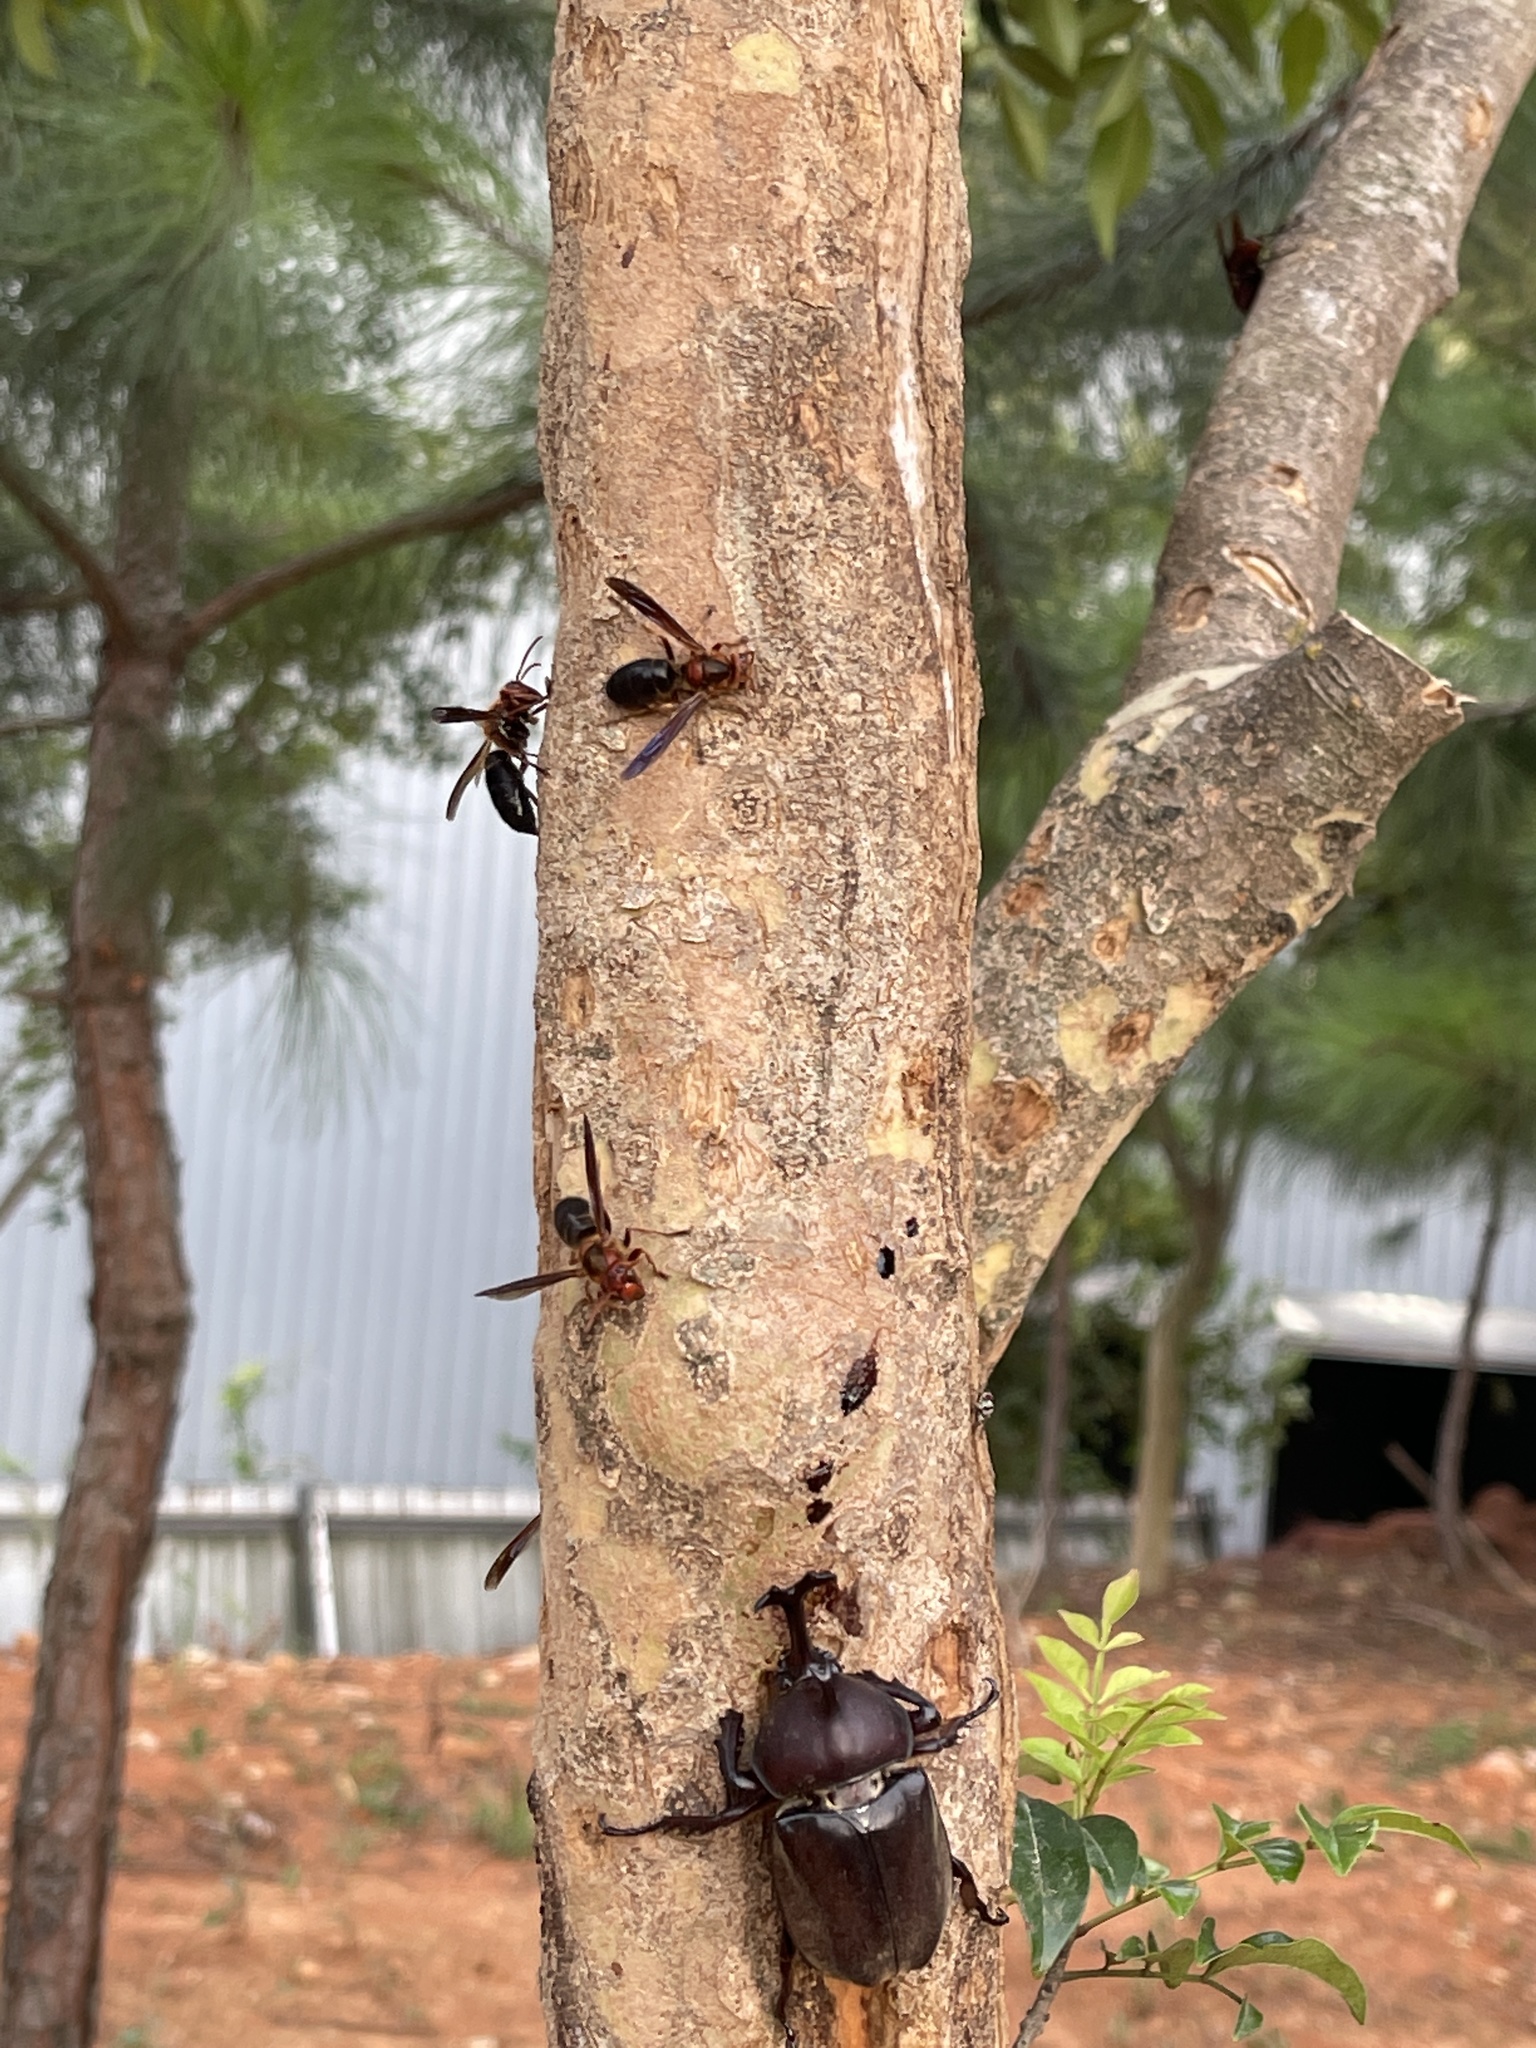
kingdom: Animalia
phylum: Arthropoda
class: Insecta
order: Hymenoptera
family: Vespidae
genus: Vespa
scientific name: Vespa basalis
